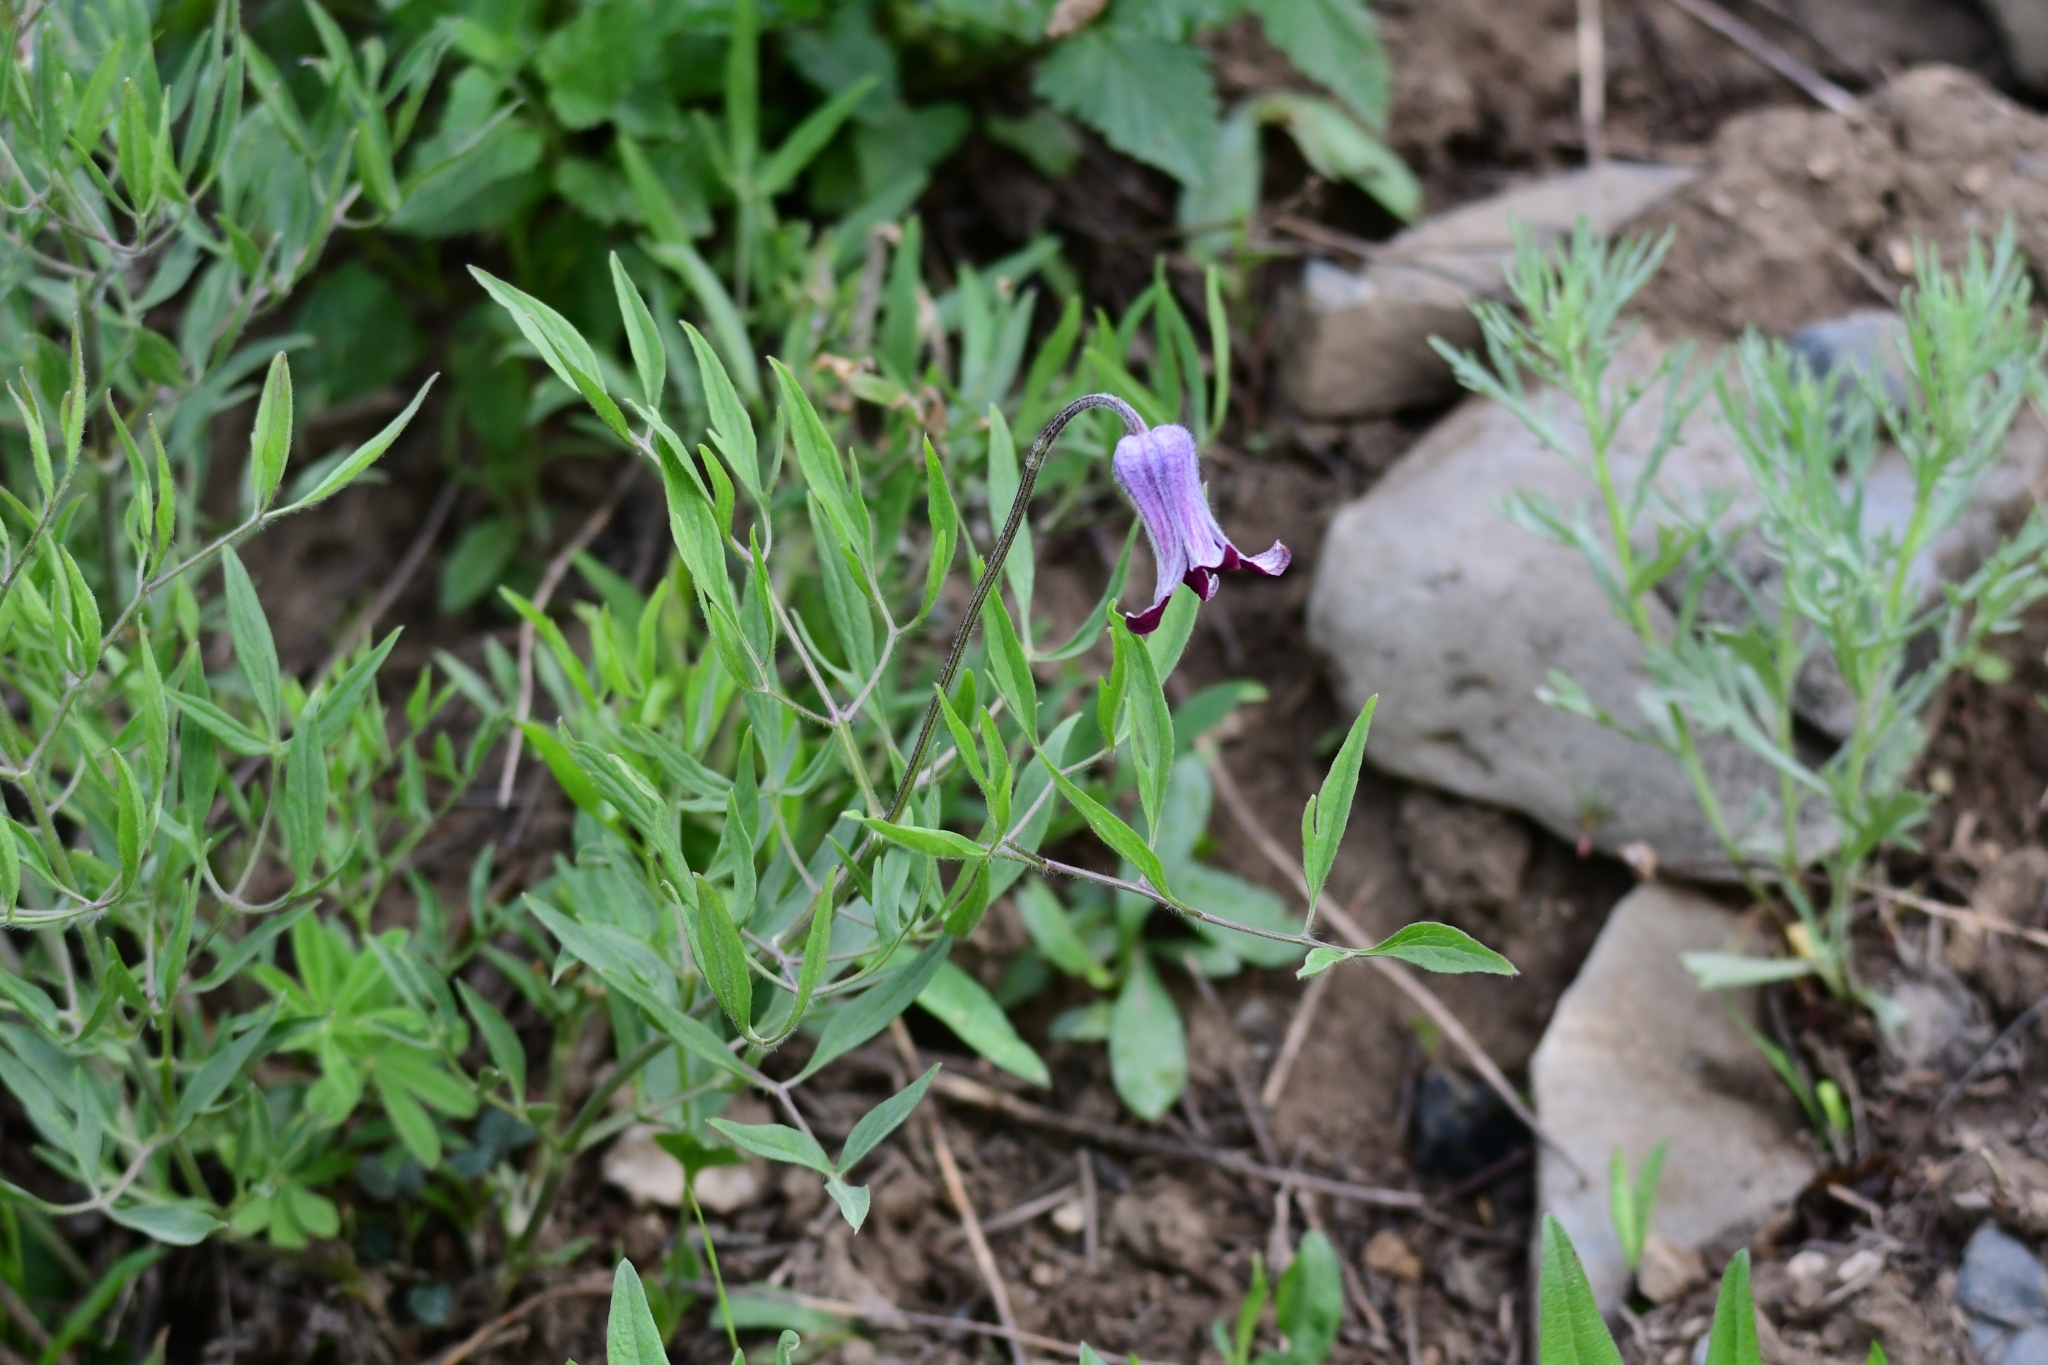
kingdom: Plantae
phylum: Tracheophyta
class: Magnoliopsida
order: Ranunculales
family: Ranunculaceae
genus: Clematis
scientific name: Clematis hirsutissima
